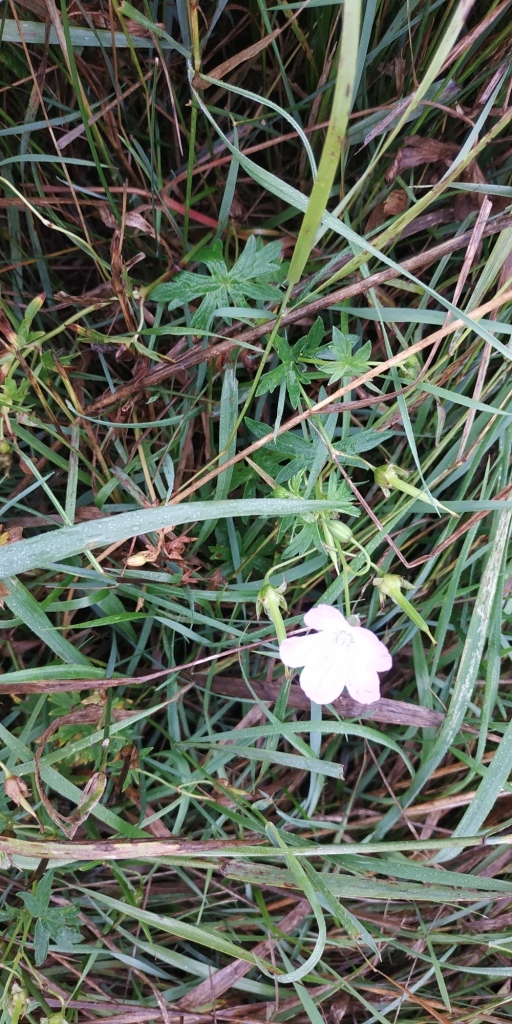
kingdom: Plantae
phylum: Tracheophyta
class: Magnoliopsida
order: Geraniales
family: Geraniaceae
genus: Geranium
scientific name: Geranium collinum
